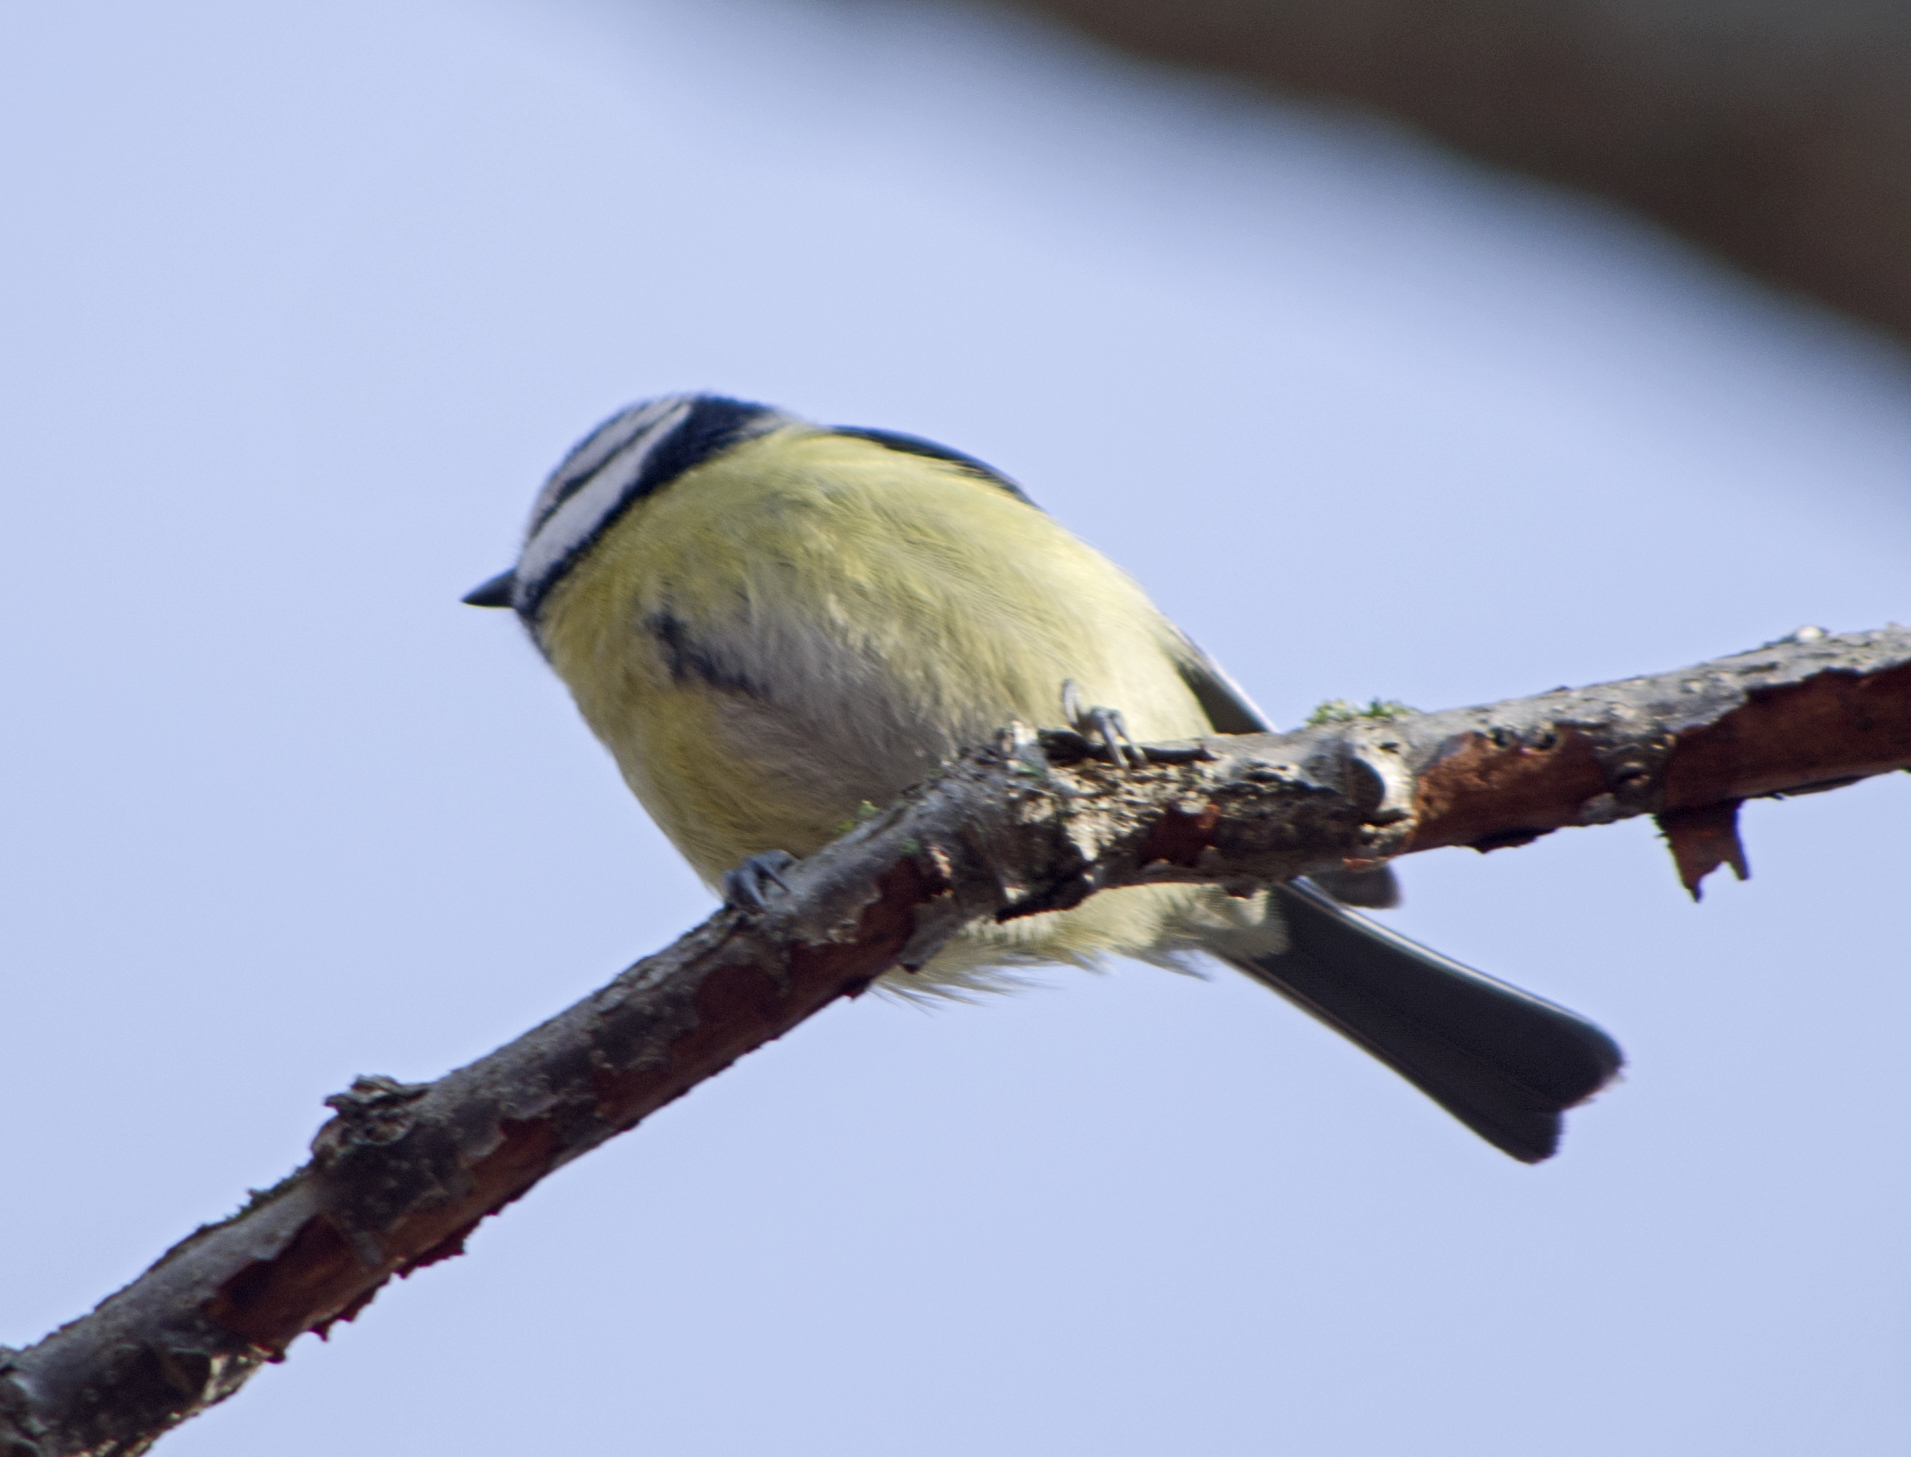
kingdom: Animalia
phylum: Chordata
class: Aves
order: Passeriformes
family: Paridae
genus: Cyanistes
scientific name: Cyanistes caeruleus
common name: Eurasian blue tit
